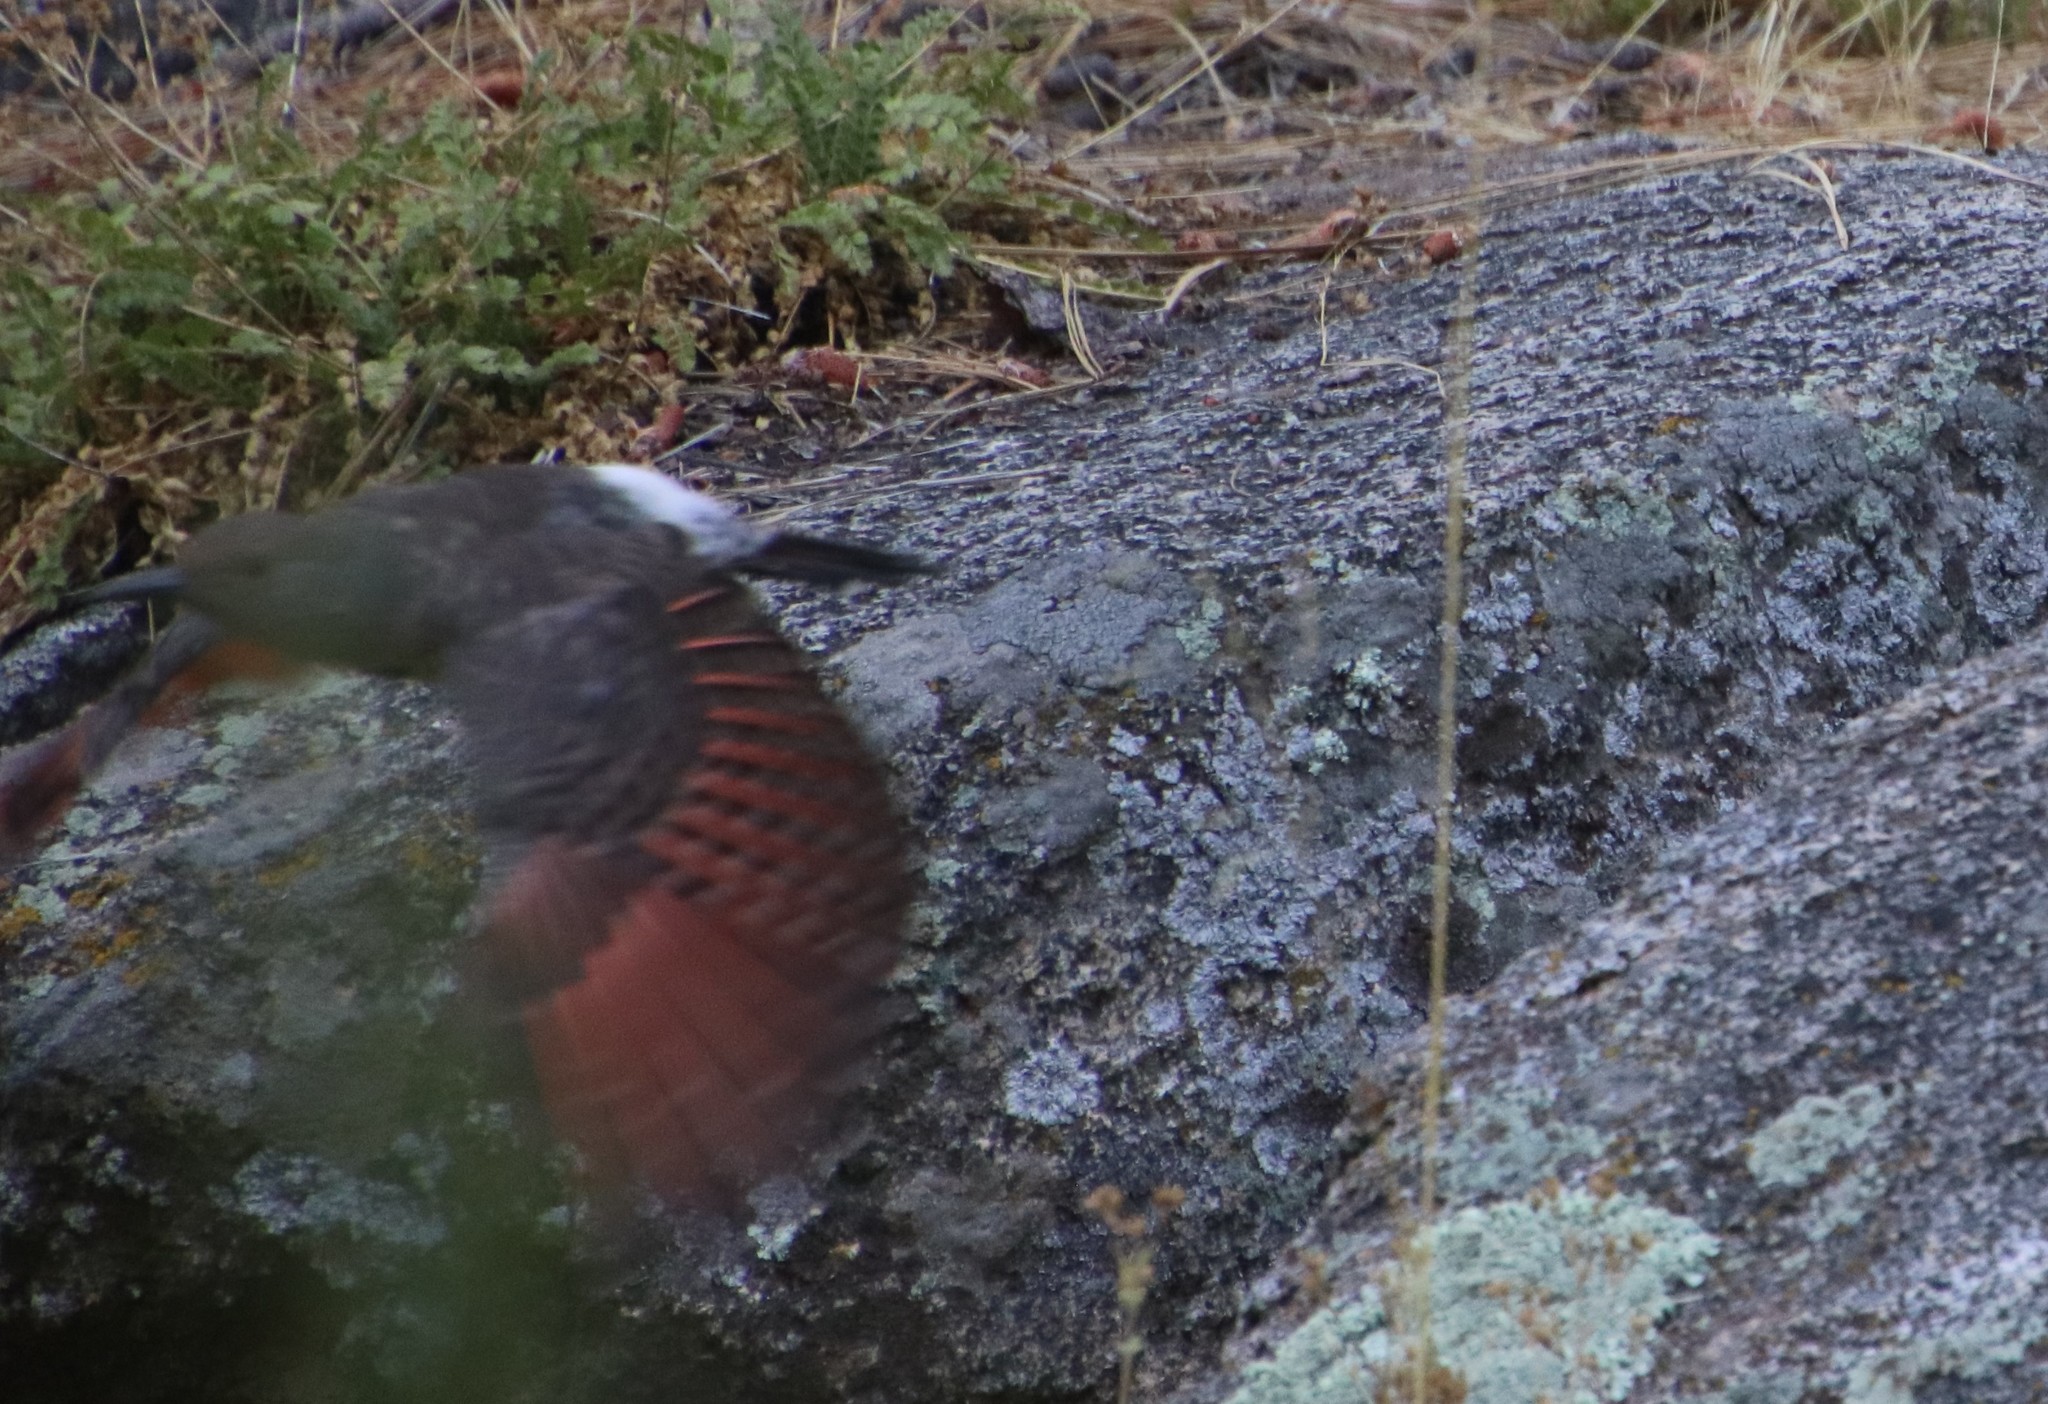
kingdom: Animalia
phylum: Chordata
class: Aves
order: Piciformes
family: Picidae
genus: Colaptes
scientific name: Colaptes auratus
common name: Northern flicker
